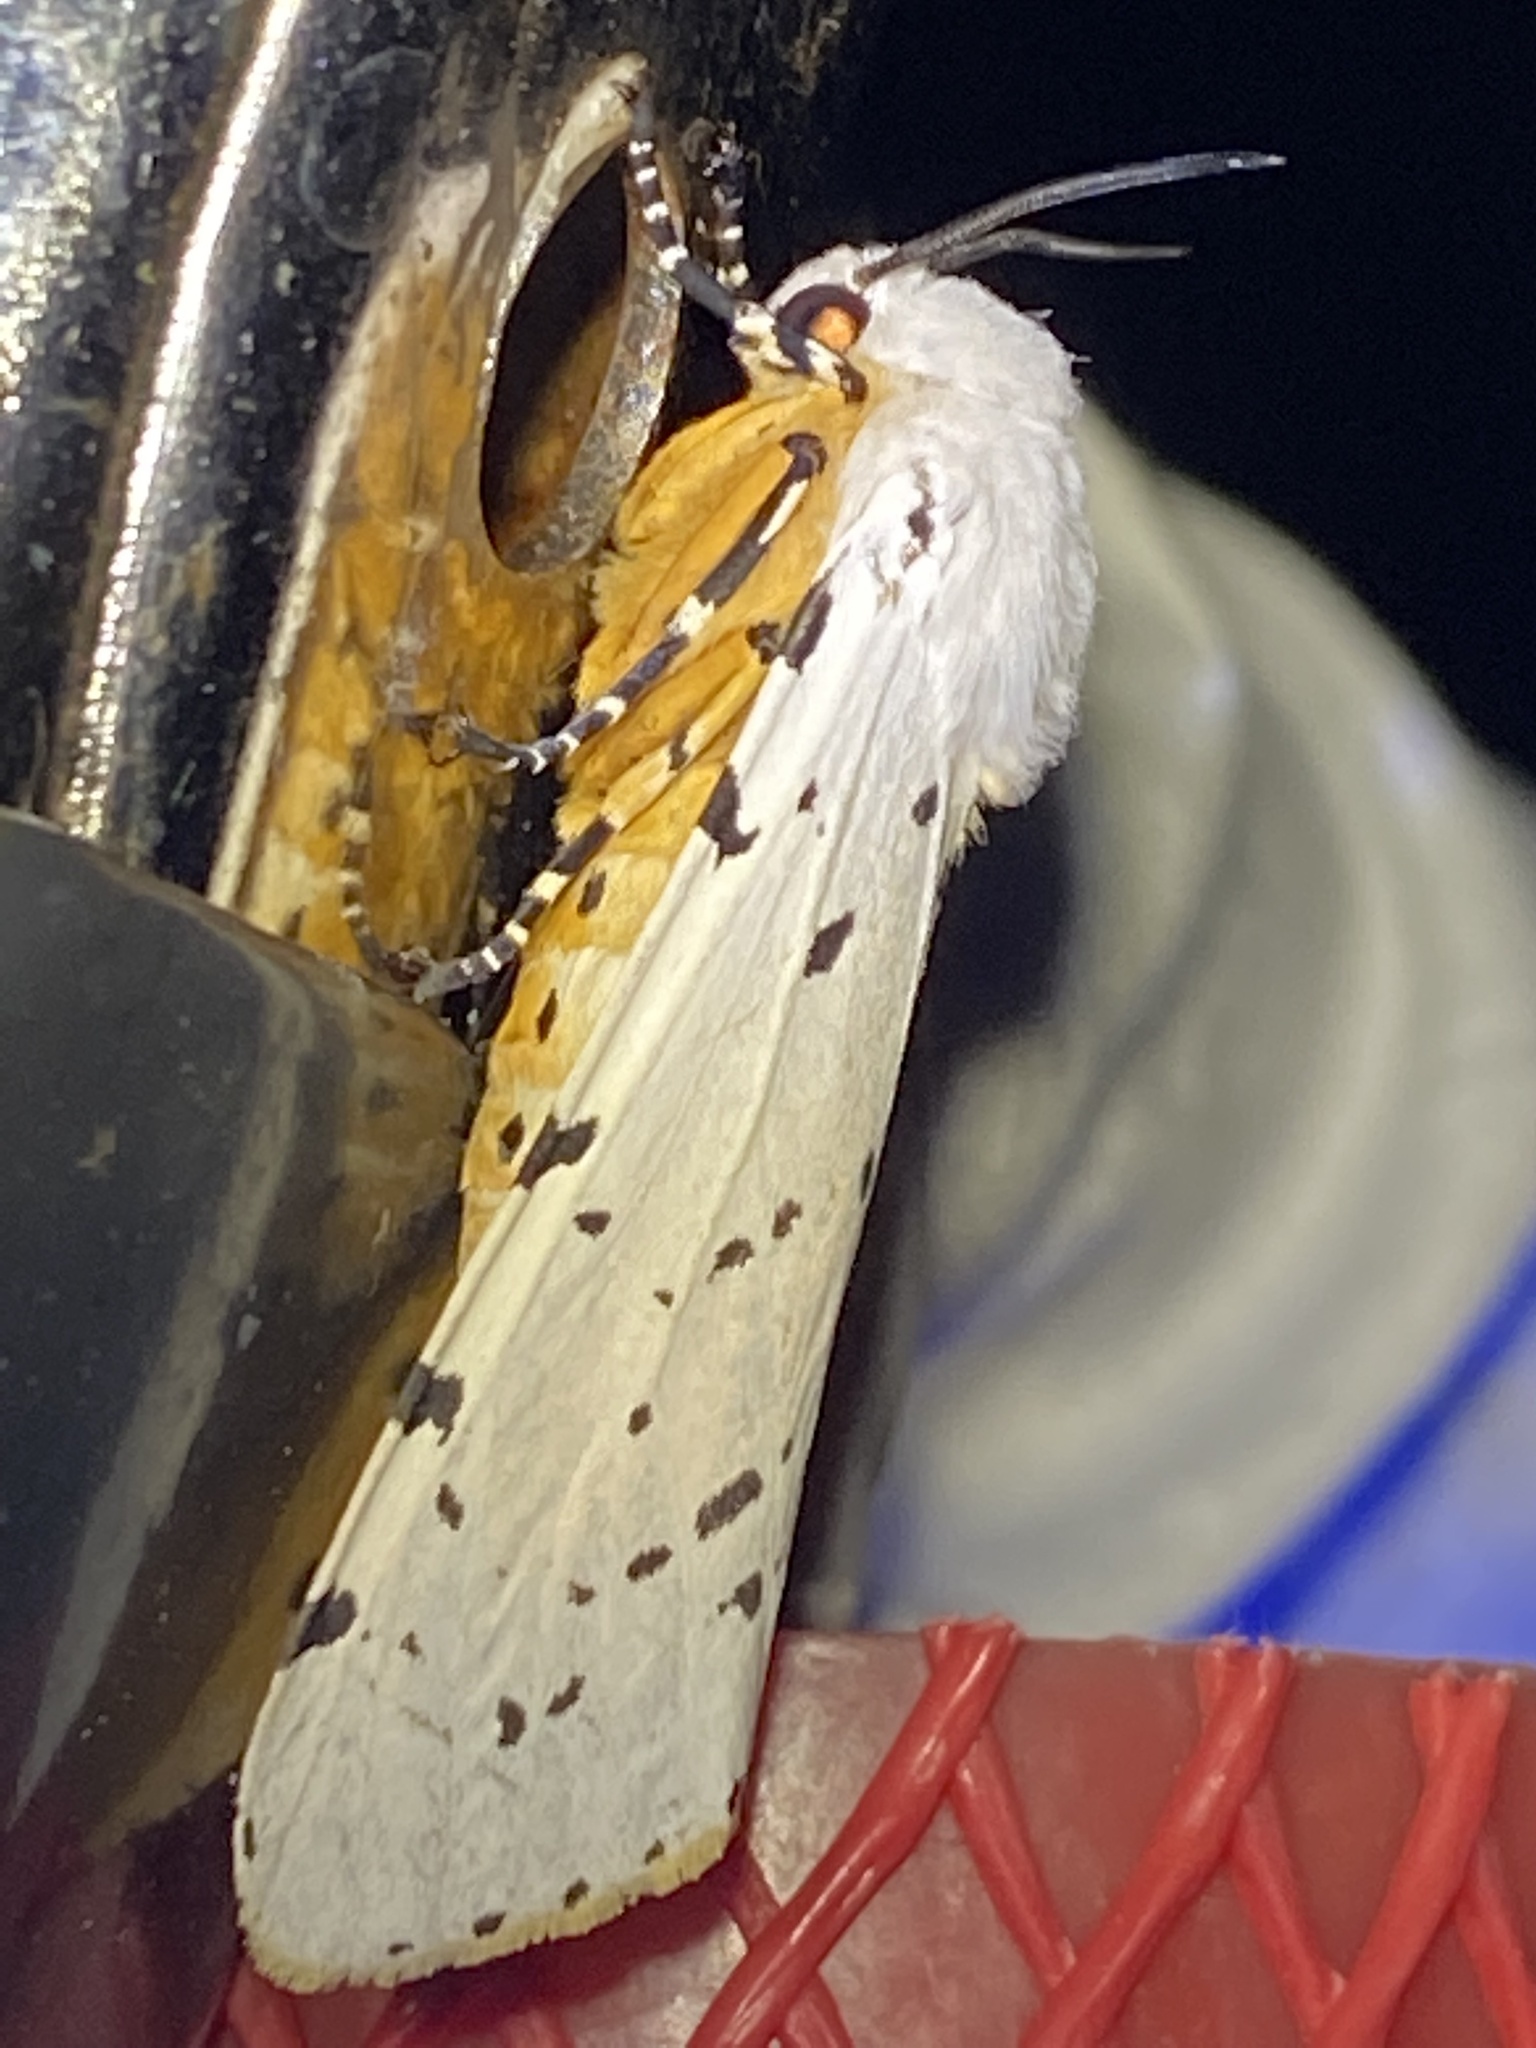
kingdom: Animalia
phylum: Arthropoda
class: Insecta
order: Lepidoptera
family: Erebidae
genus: Estigmene
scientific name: Estigmene acrea
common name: Salt marsh moth
